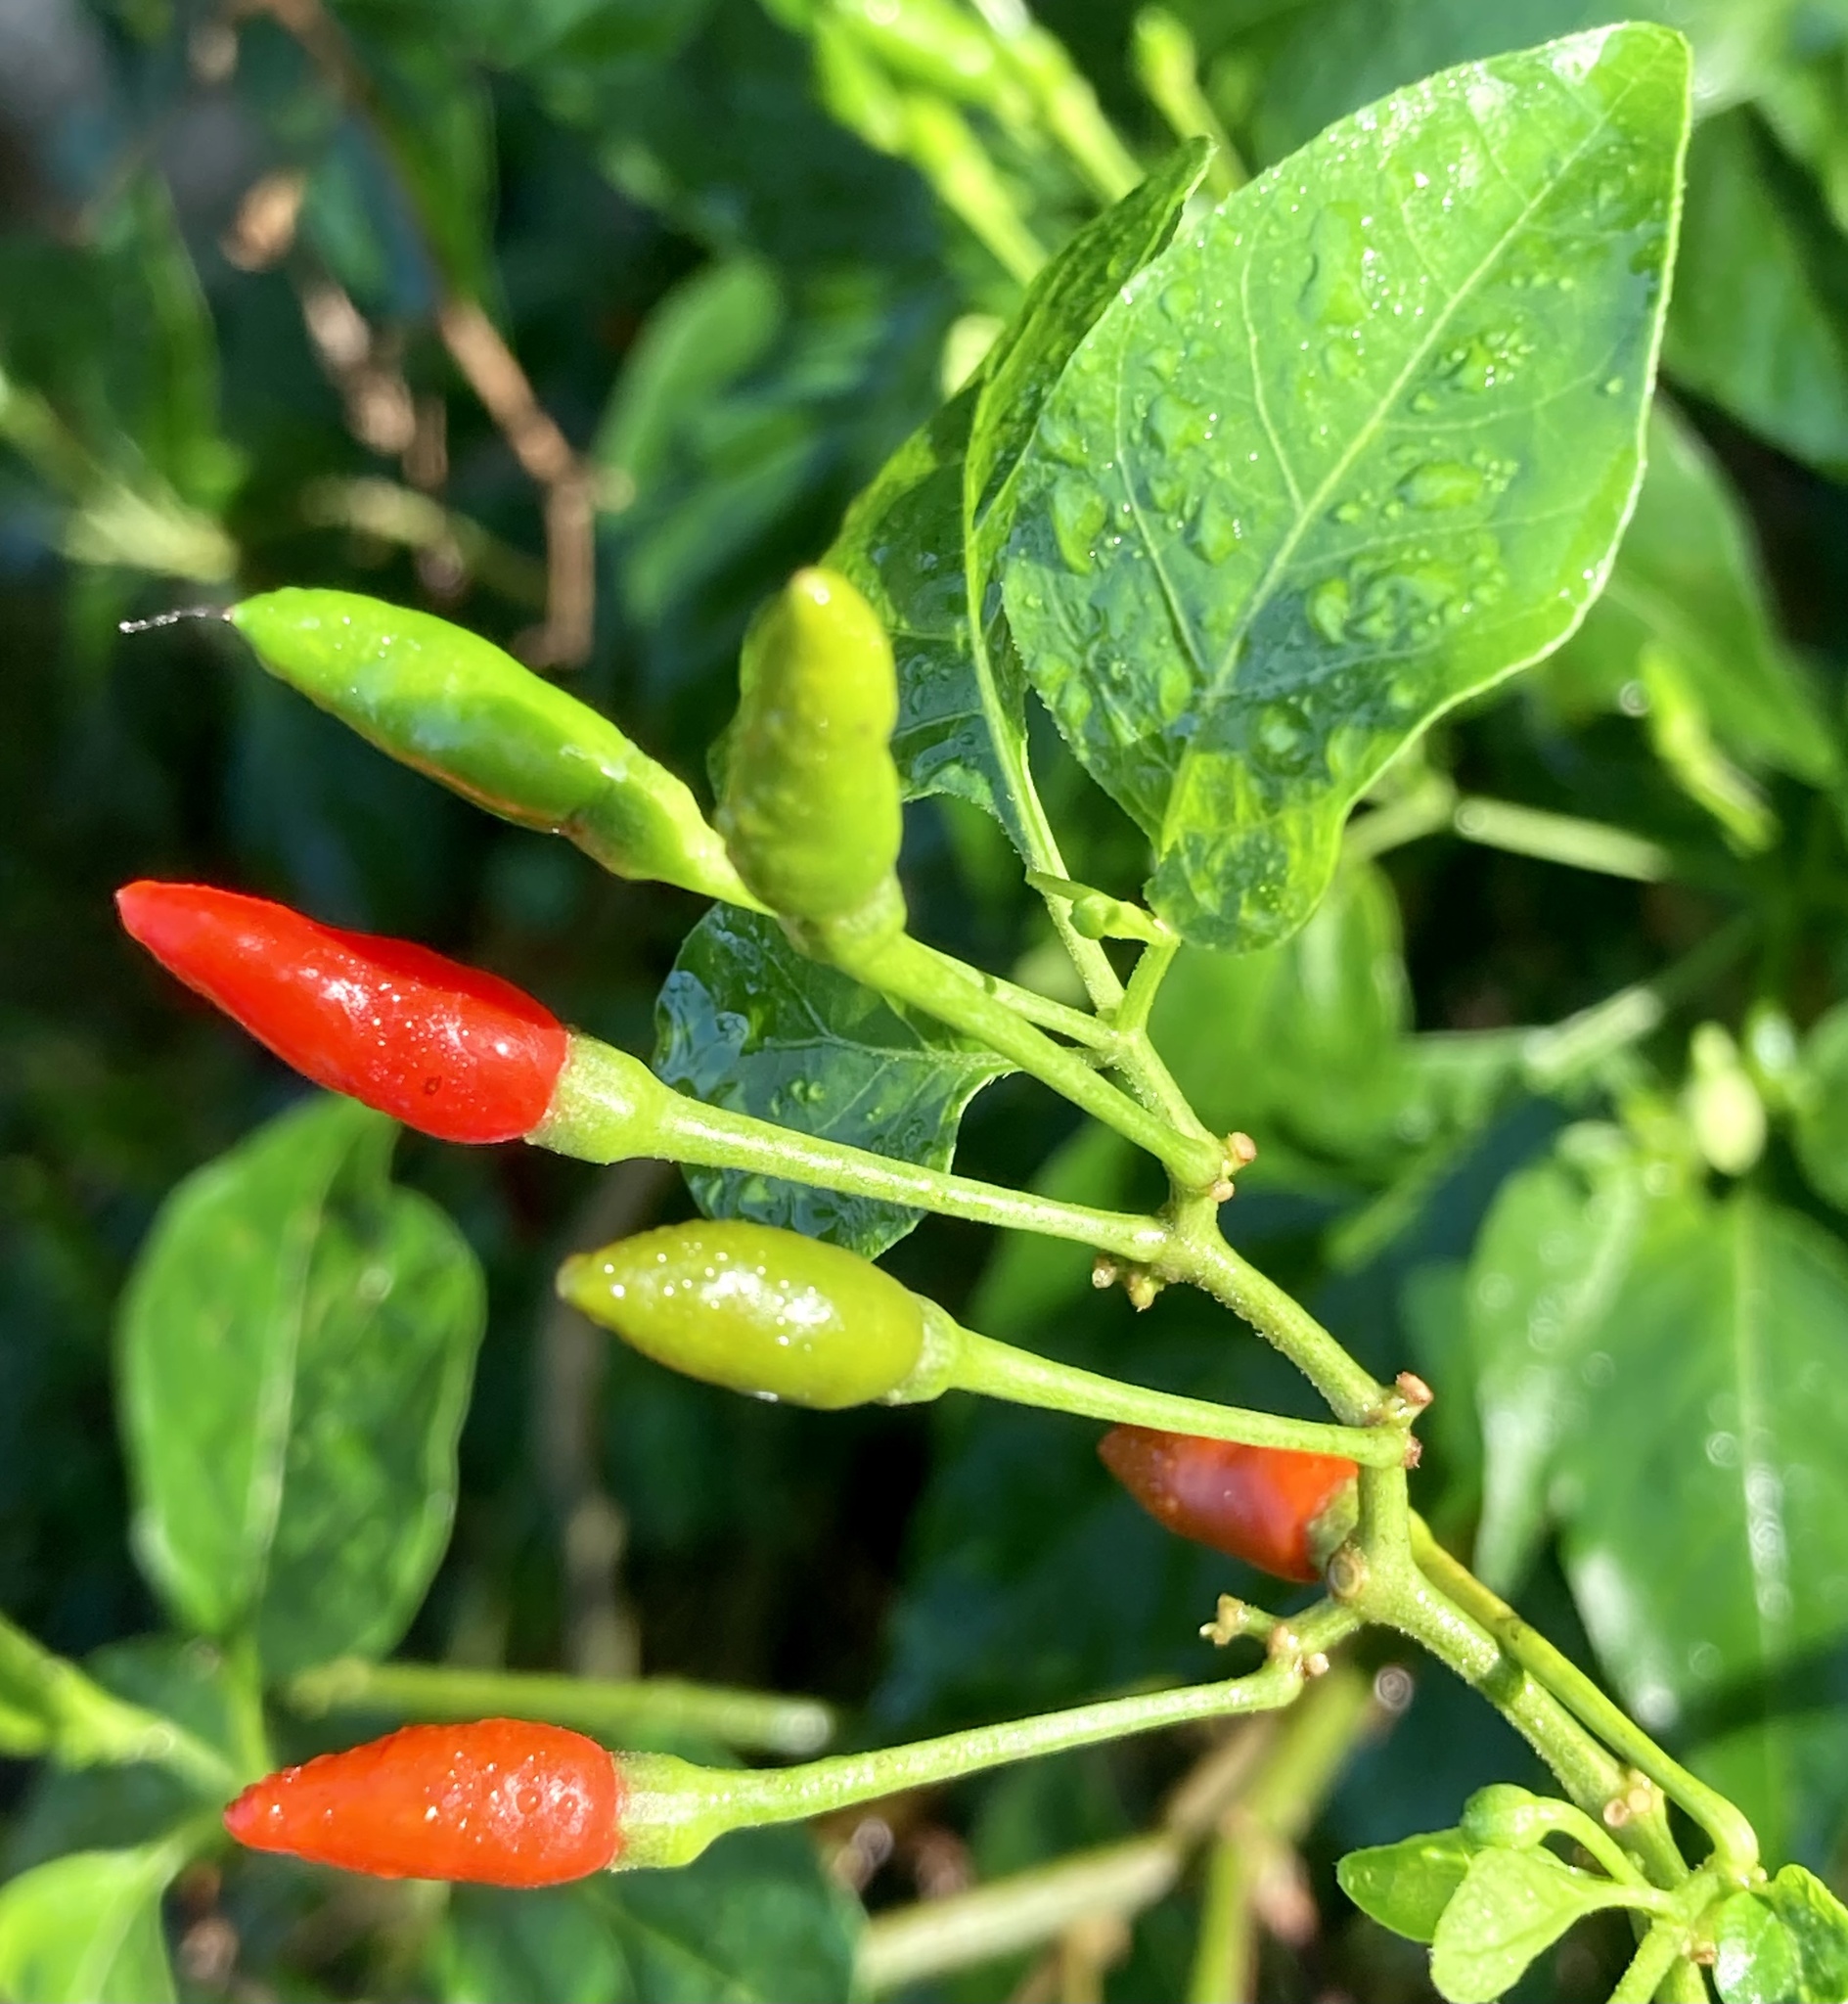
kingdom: Plantae
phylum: Tracheophyta
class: Magnoliopsida
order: Solanales
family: Solanaceae
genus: Capsicum
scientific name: Capsicum frutescens
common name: Bird pepper
